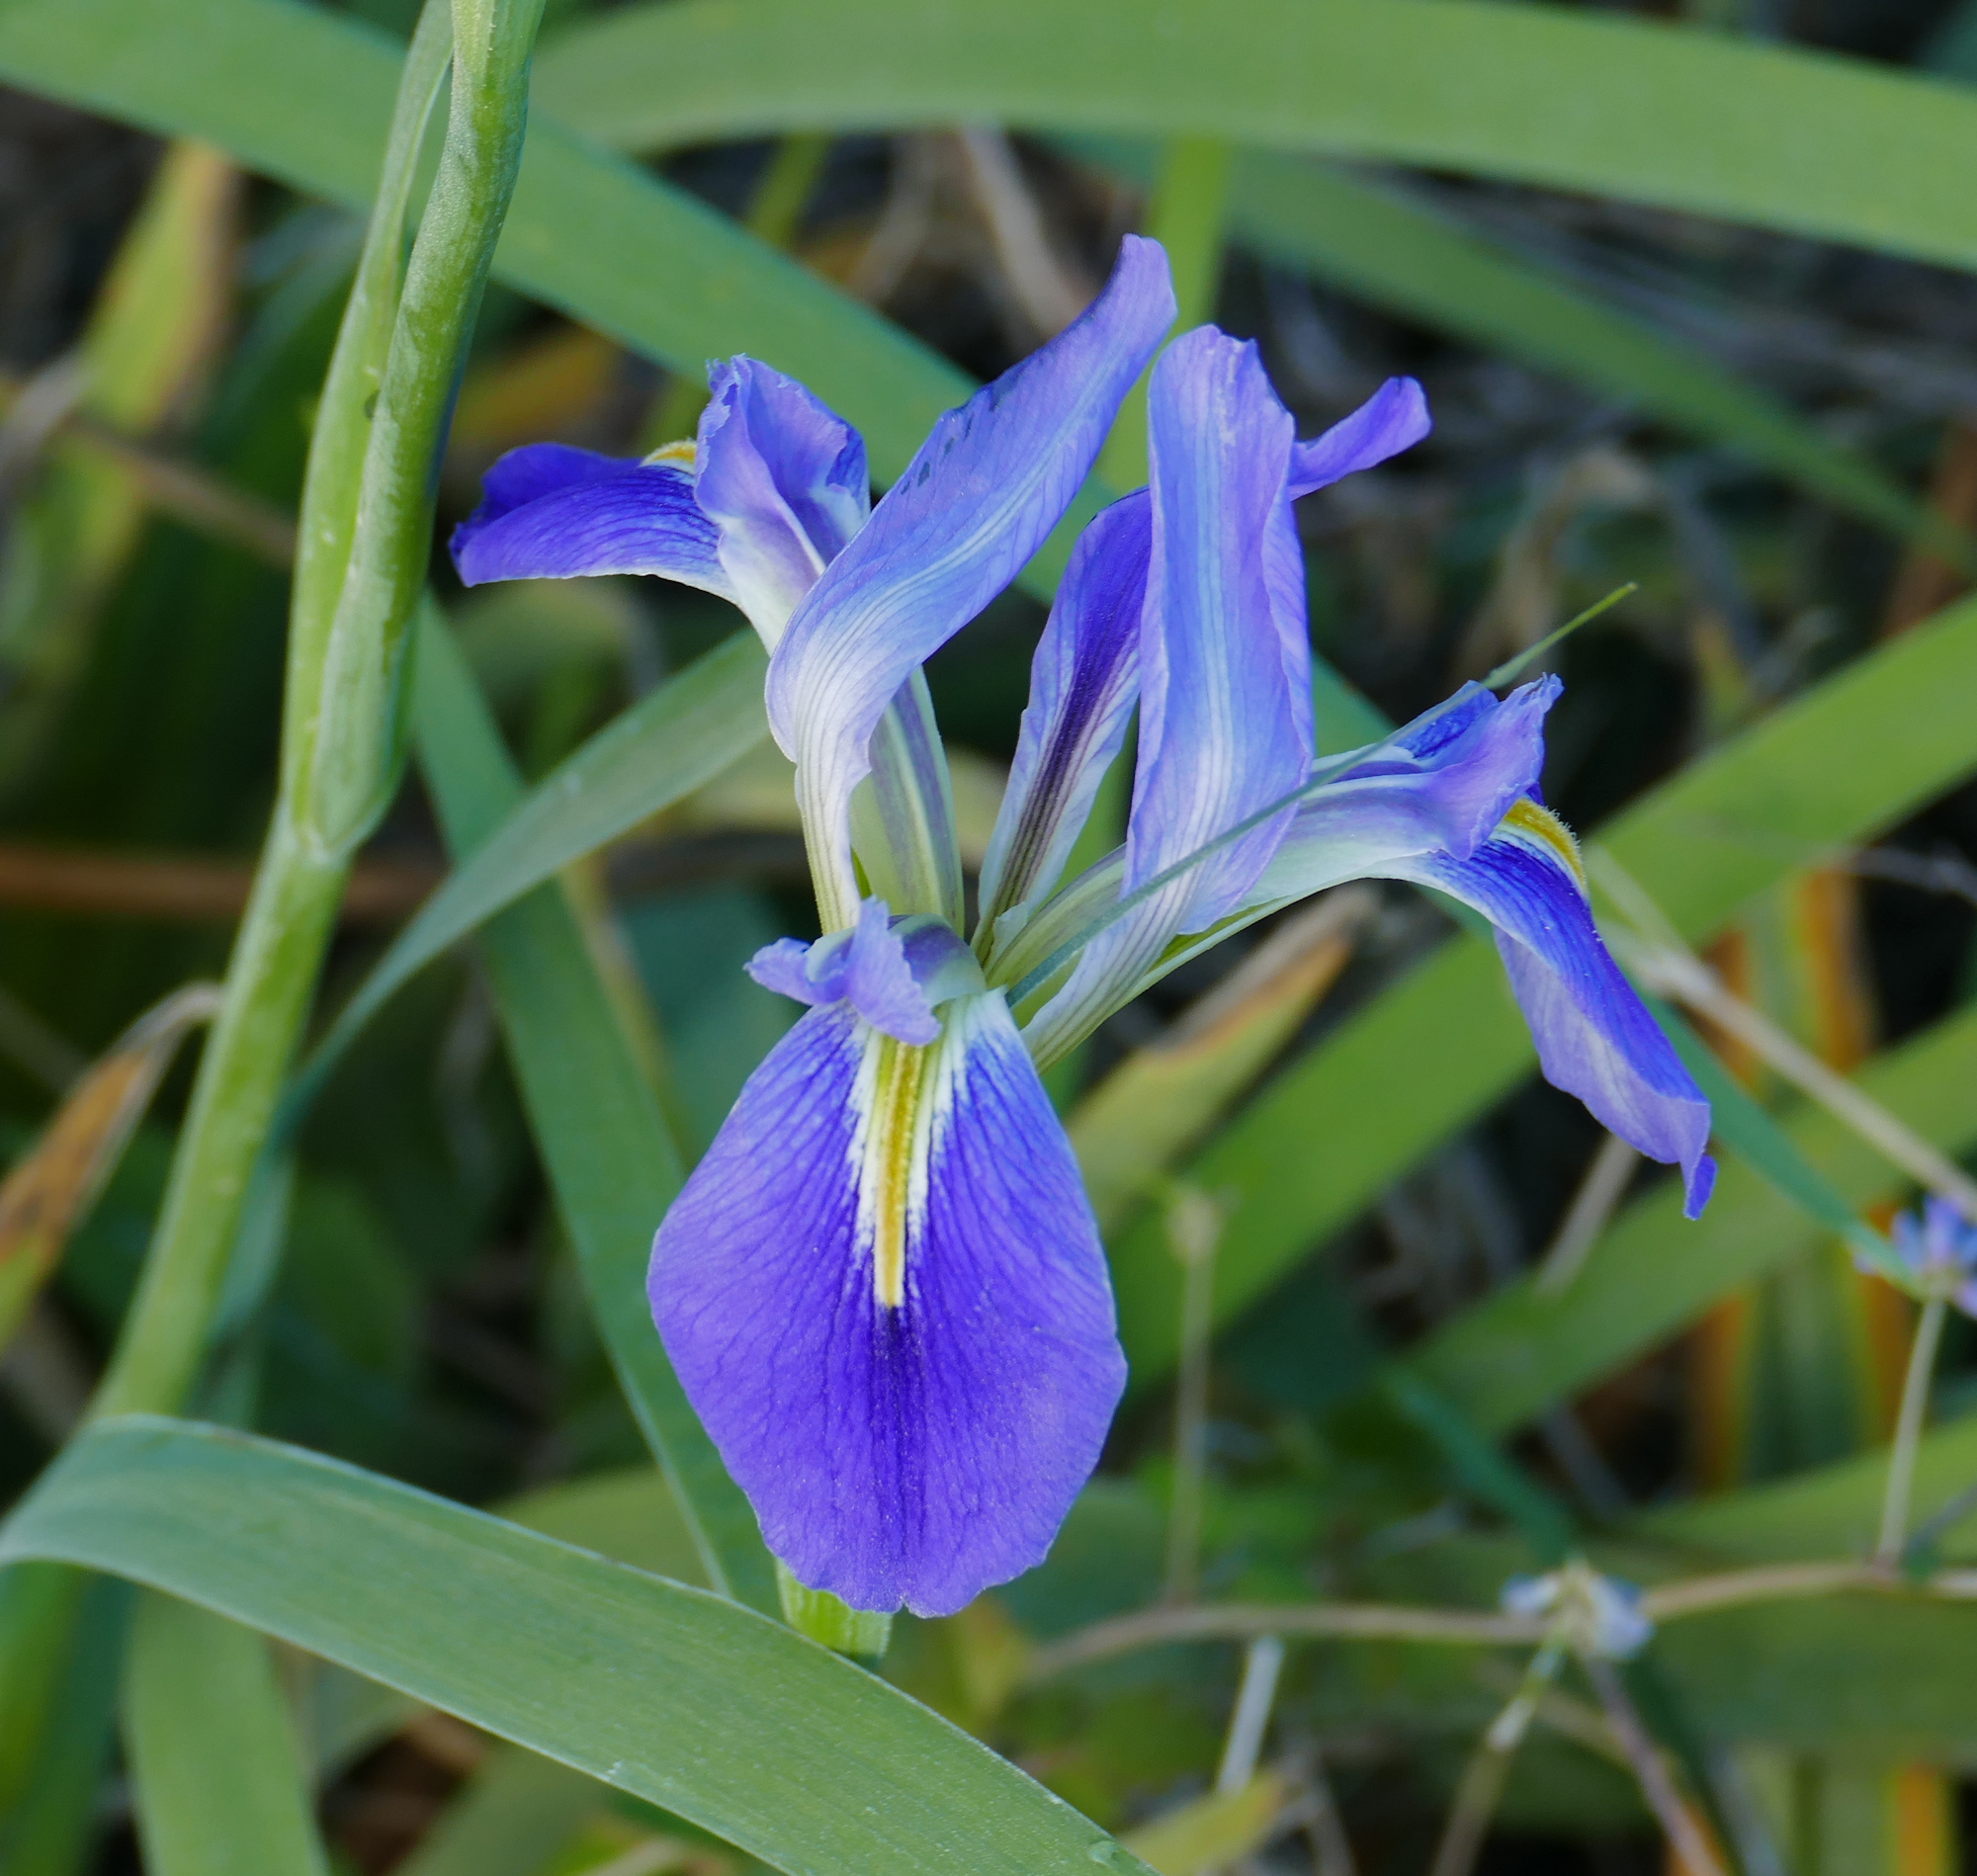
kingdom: Plantae
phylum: Tracheophyta
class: Liliopsida
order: Asparagales
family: Iridaceae
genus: Iris
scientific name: Iris hexagona
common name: Carolina iris
